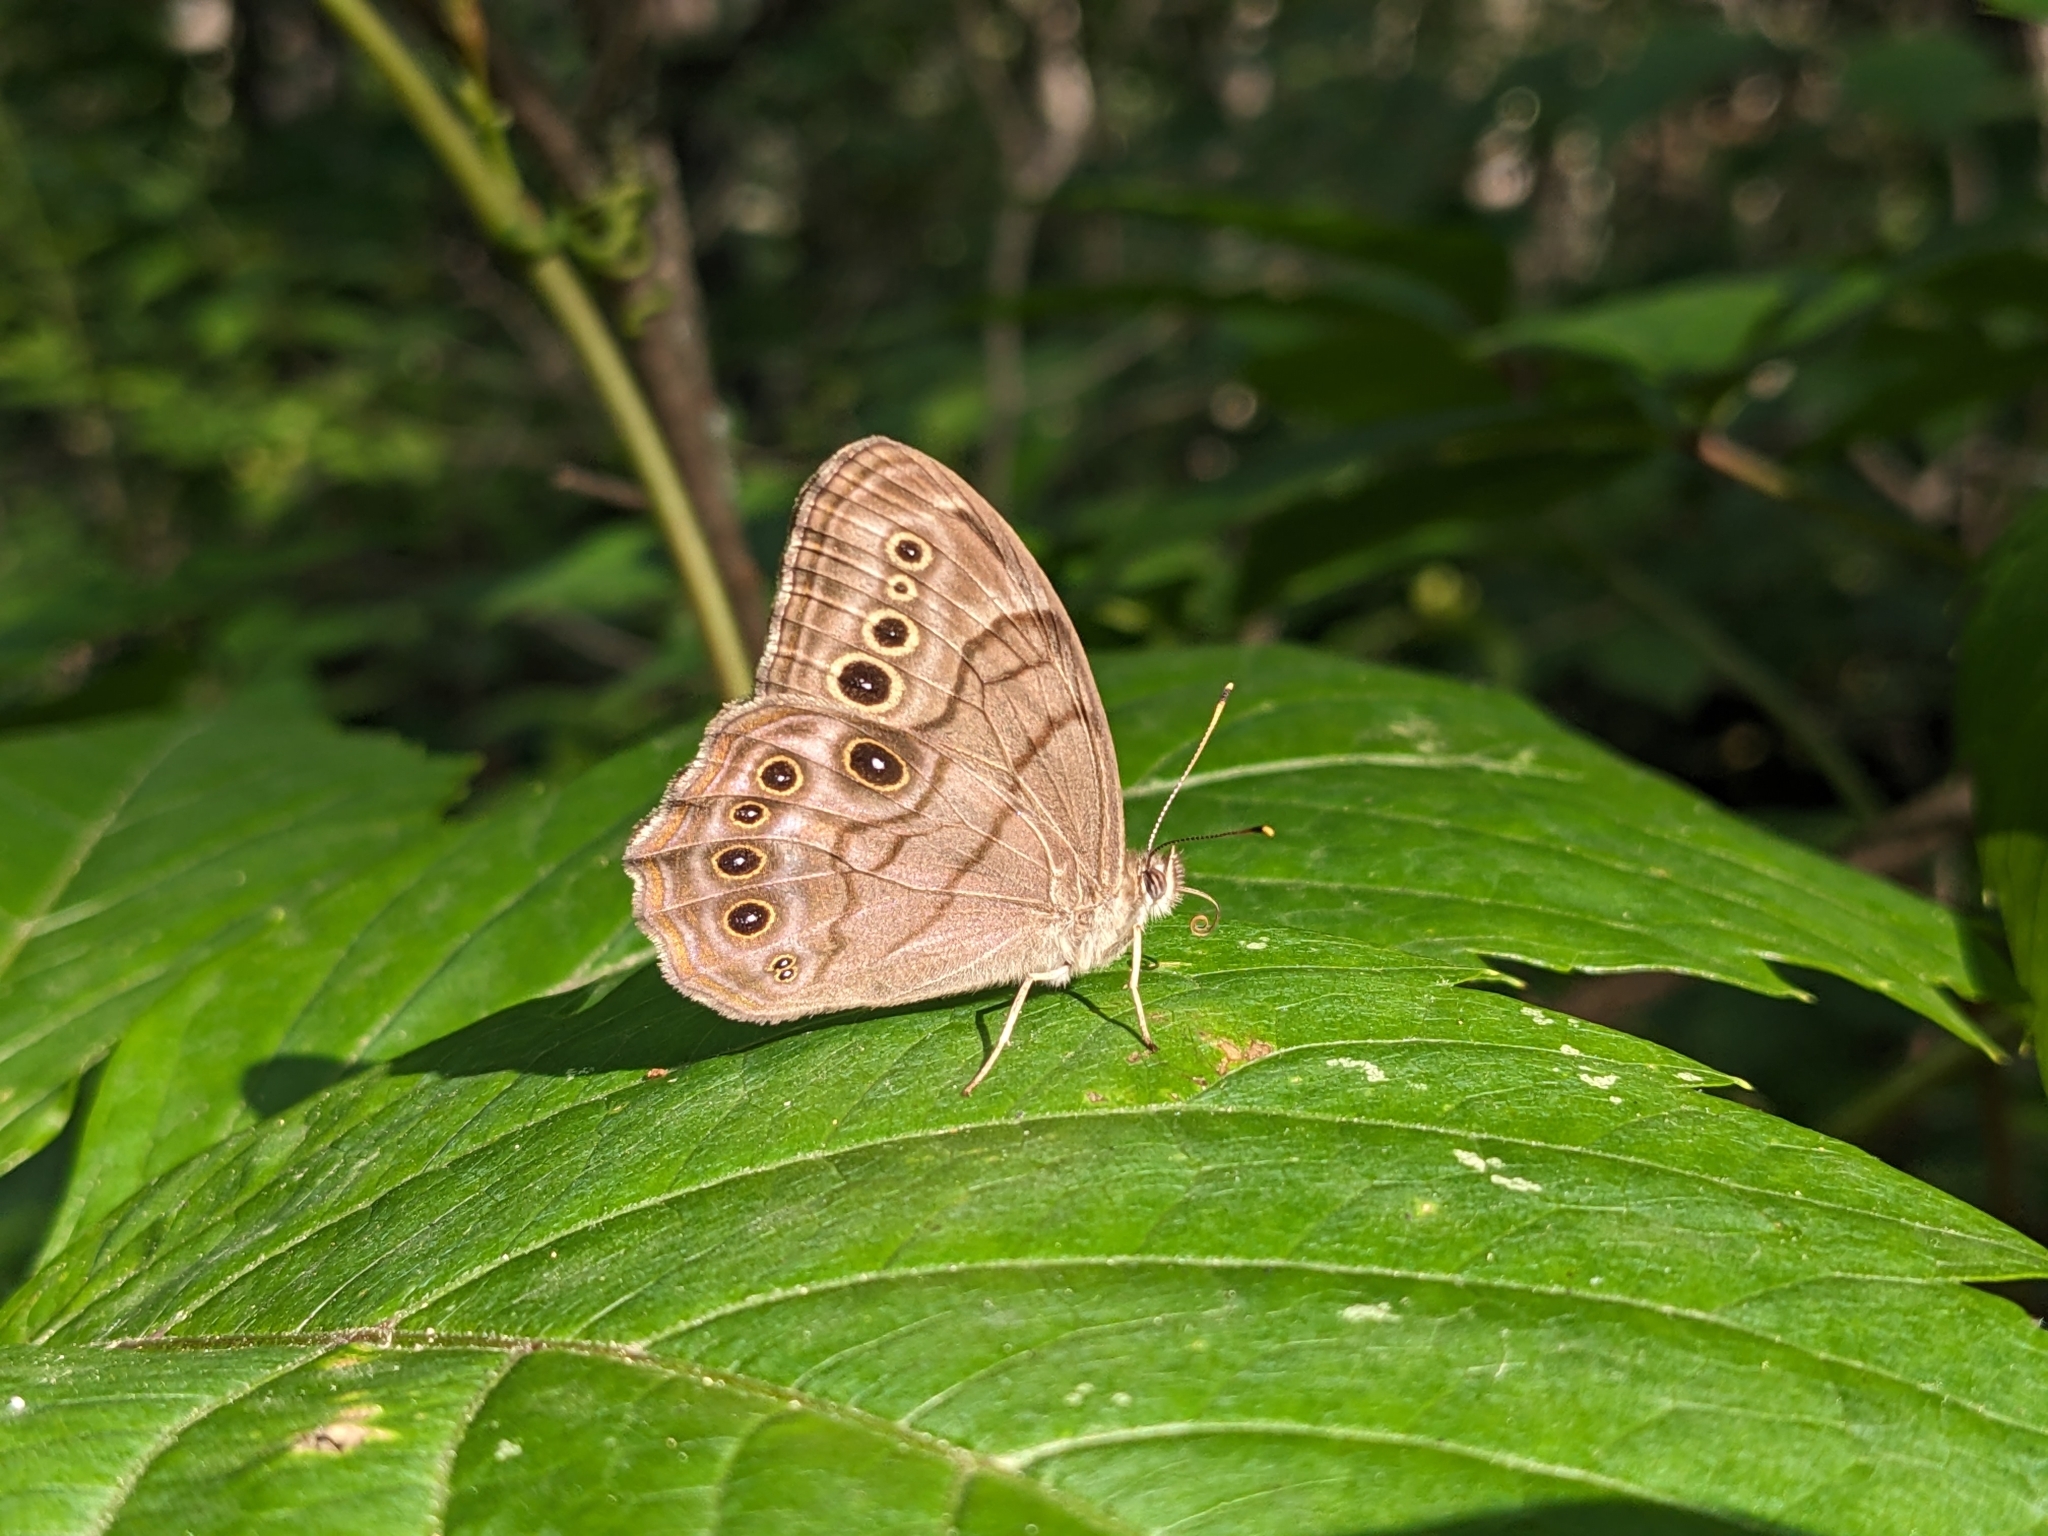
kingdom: Animalia
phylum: Arthropoda
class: Insecta
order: Lepidoptera
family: Nymphalidae
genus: Lethe
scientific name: Lethe anthedon
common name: Northern pearly-eye
